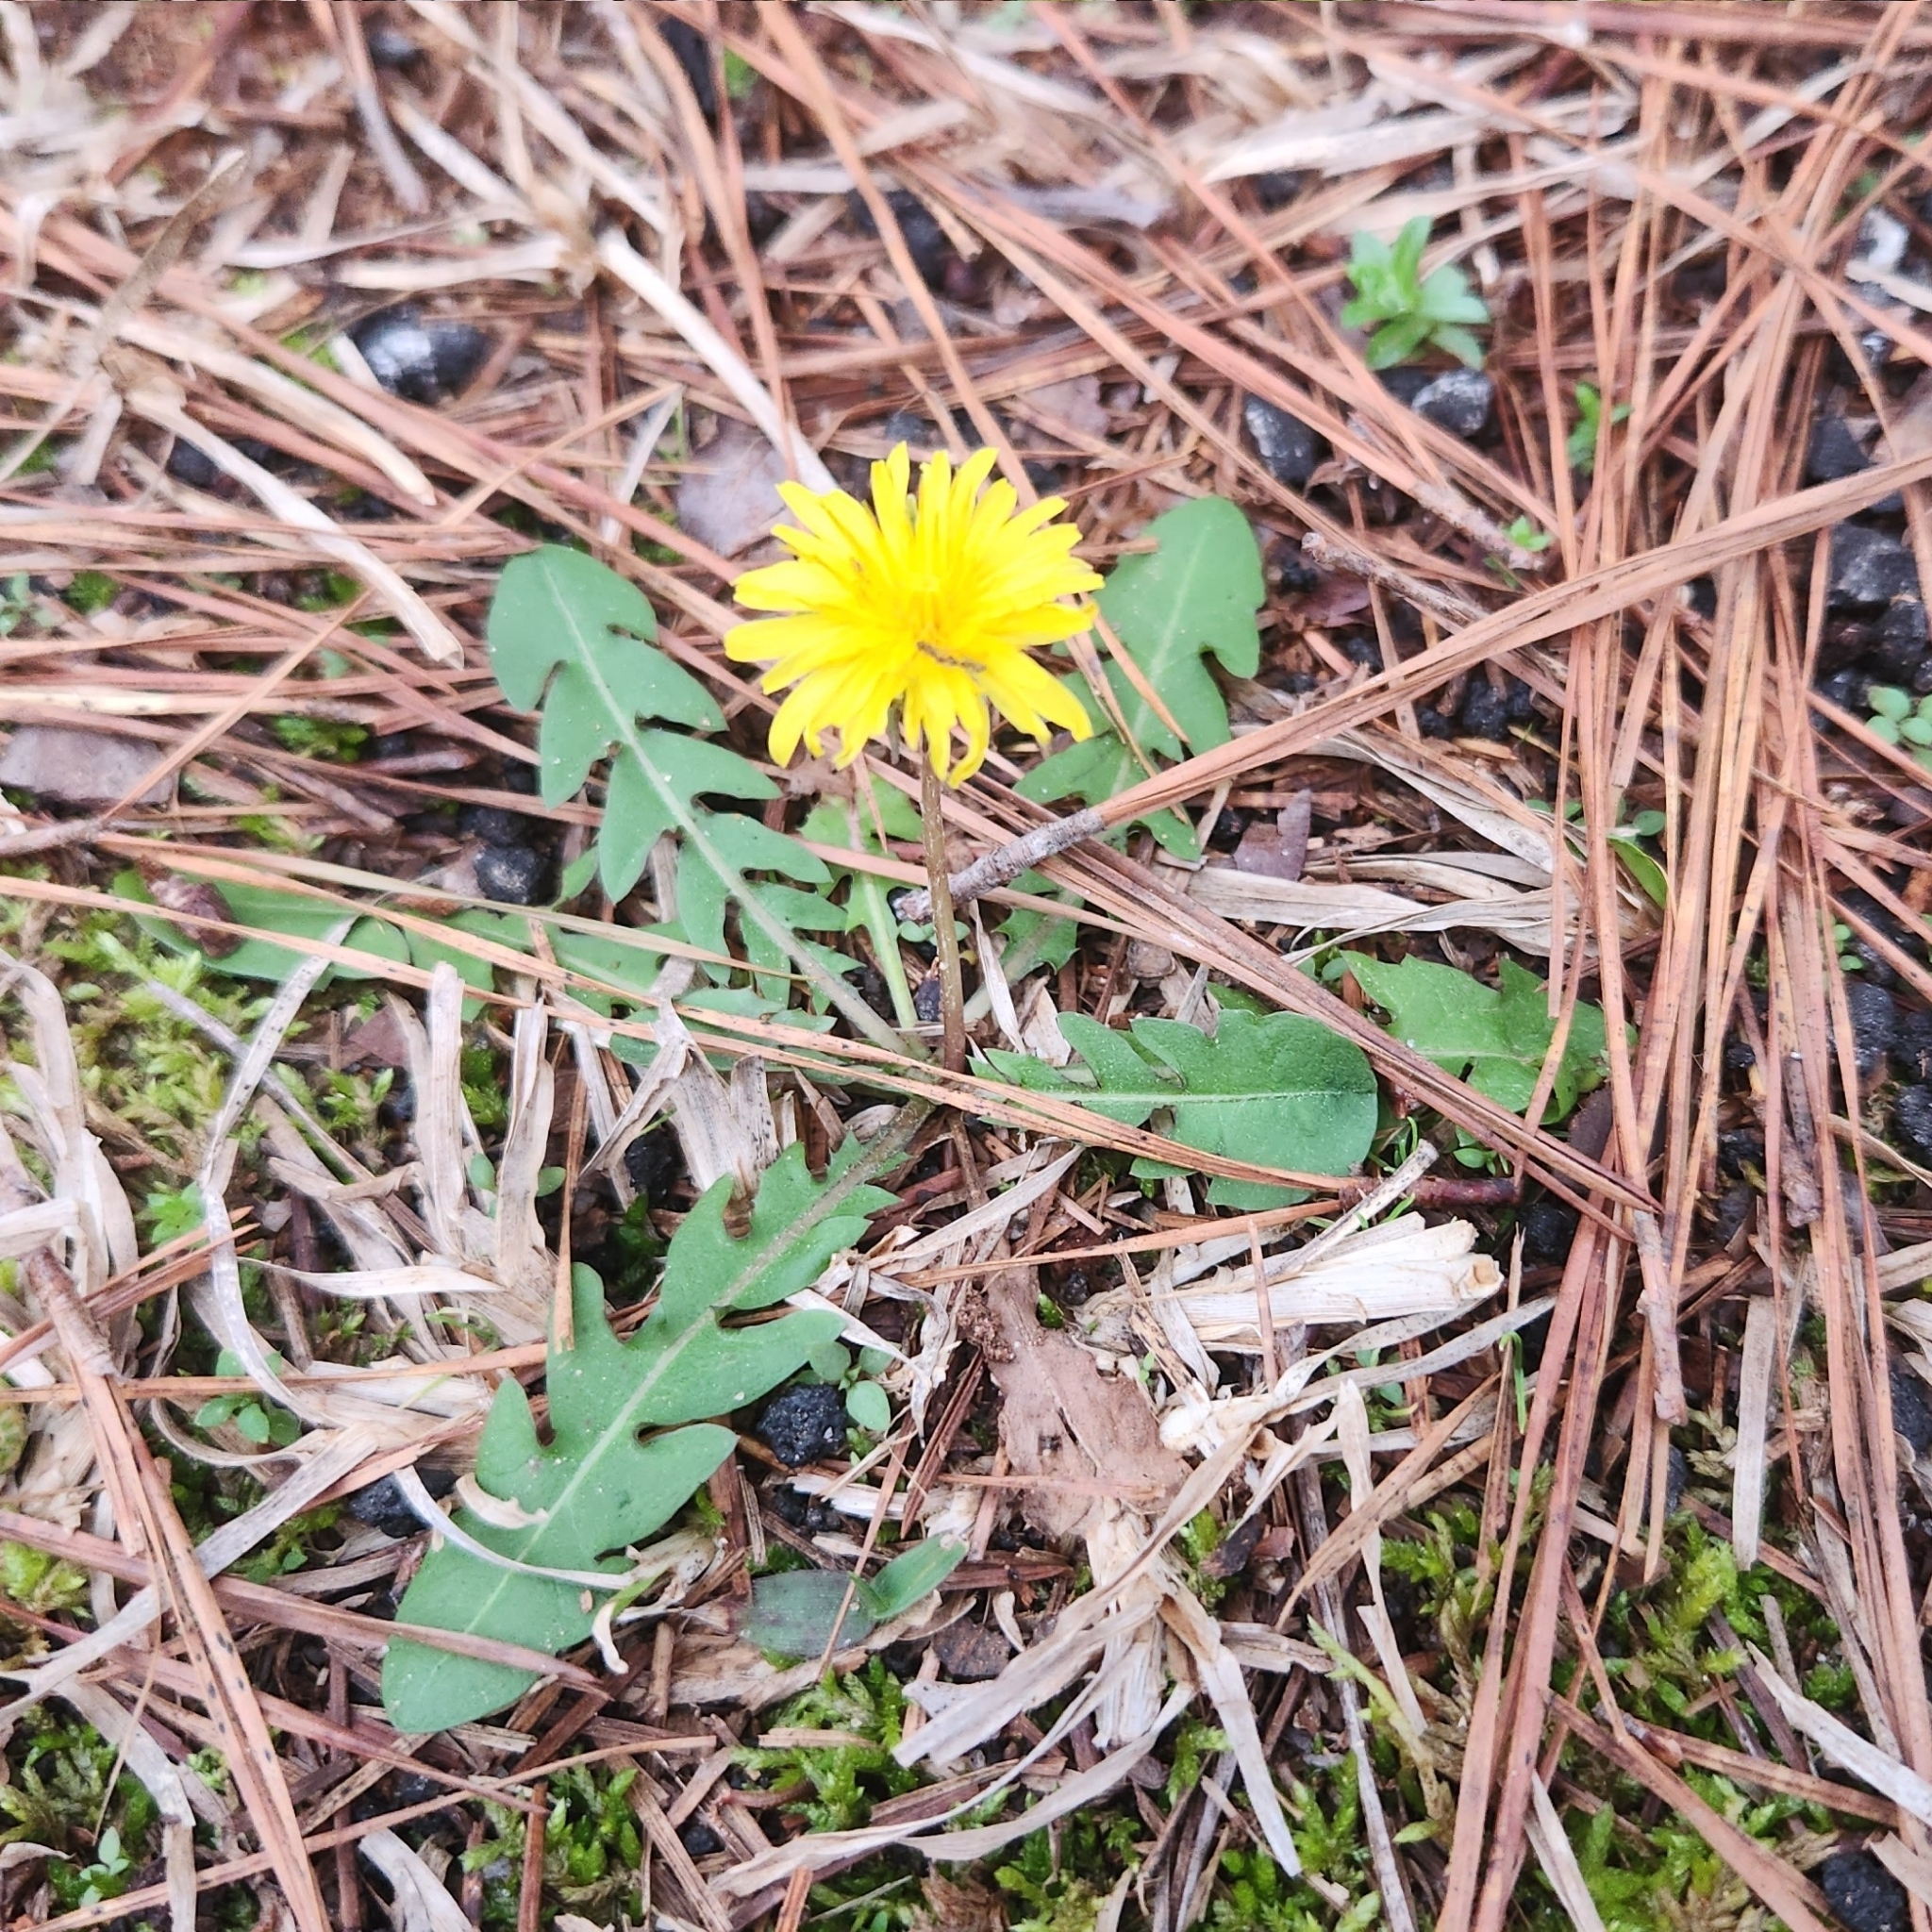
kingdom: Plantae
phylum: Tracheophyta
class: Magnoliopsida
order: Asterales
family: Asteraceae
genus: Taraxacum
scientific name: Taraxacum officinale
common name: Common dandelion
